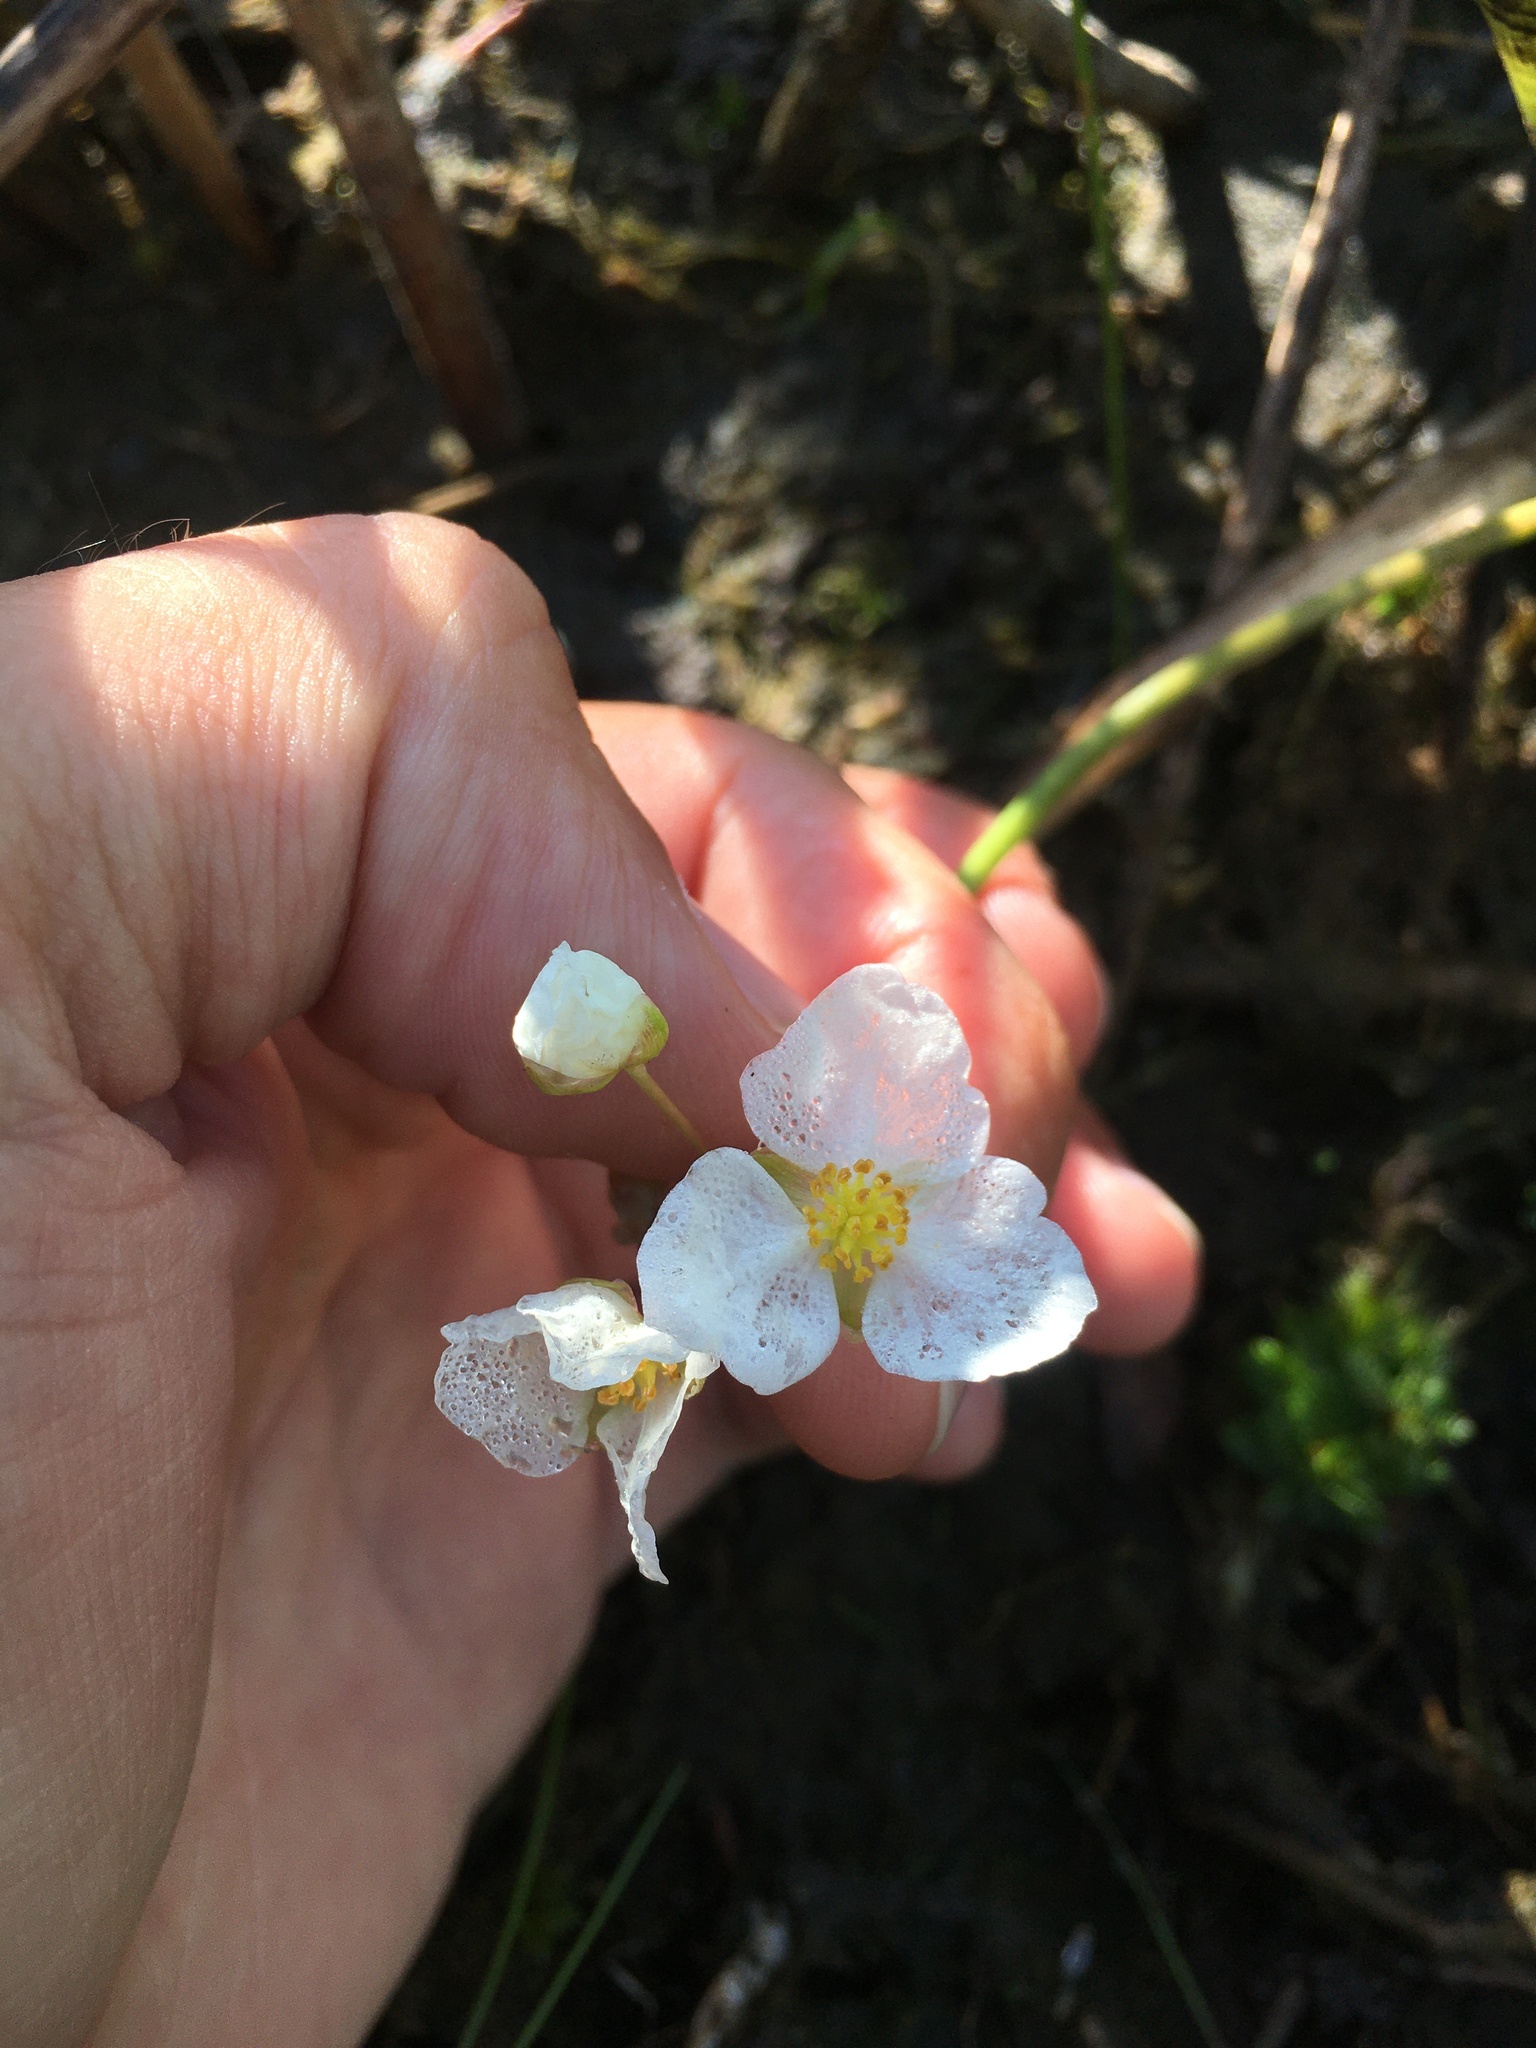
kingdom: Plantae
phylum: Tracheophyta
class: Liliopsida
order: Alismatales
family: Alismataceae
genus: Sagittaria
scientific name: Sagittaria rigida
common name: Canadian arrowhead
